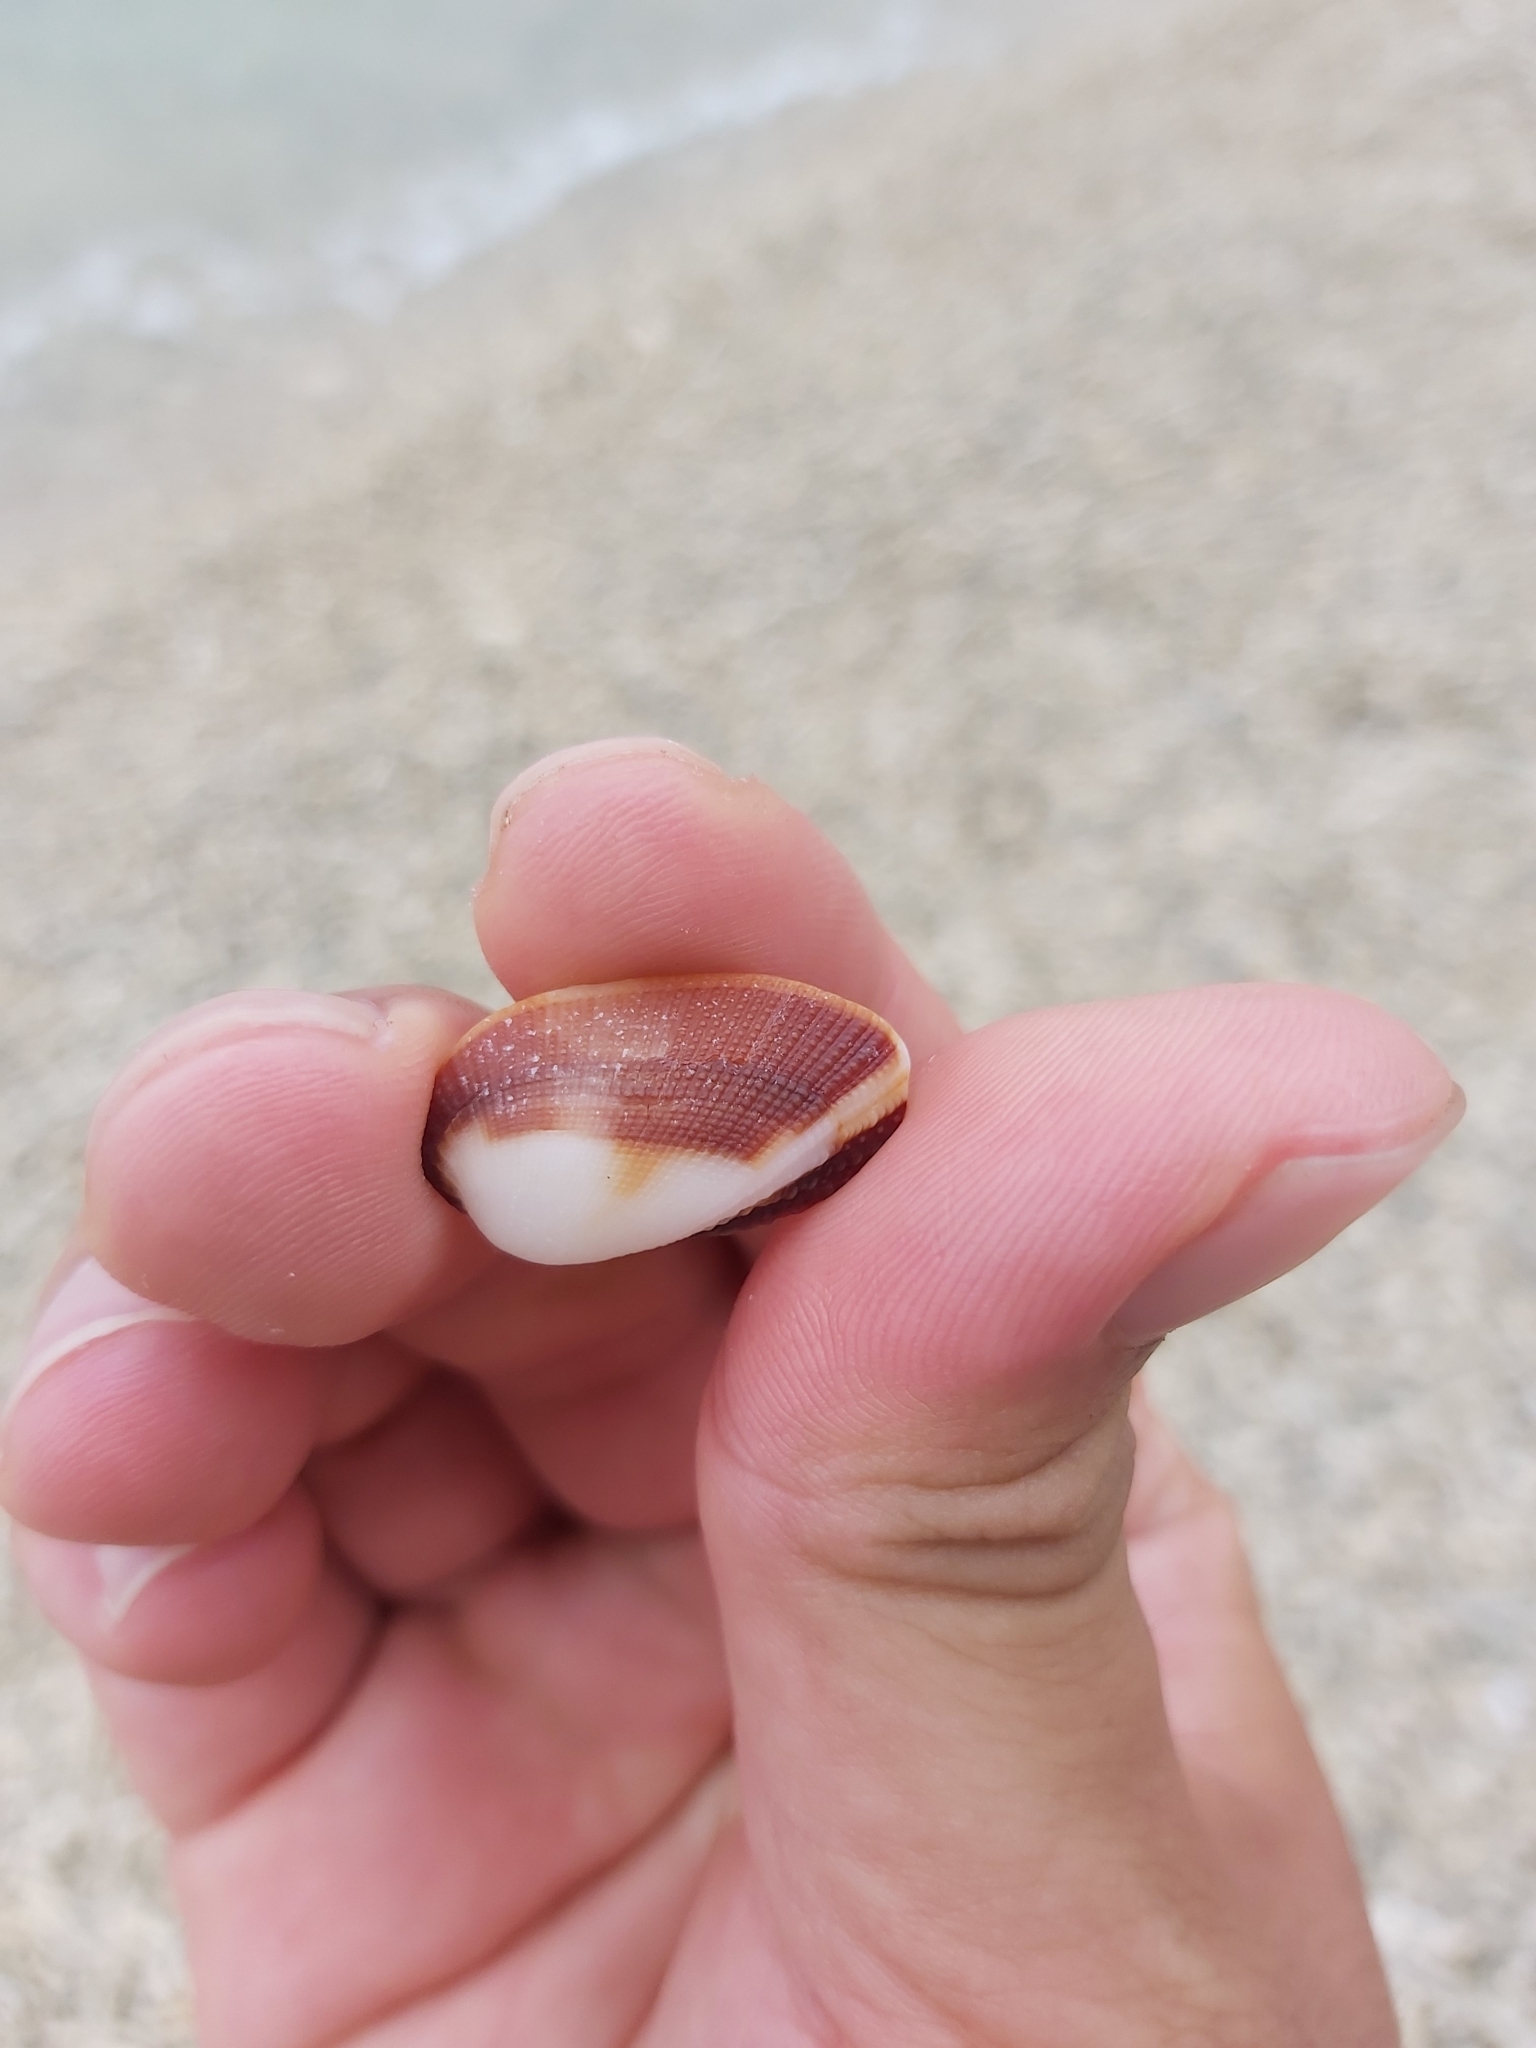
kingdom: Animalia
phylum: Mollusca
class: Bivalvia
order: Arcida
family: Arcidae
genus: Barbatia
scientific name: Barbatia amygdalumtostum
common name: Burnt-almond ark
